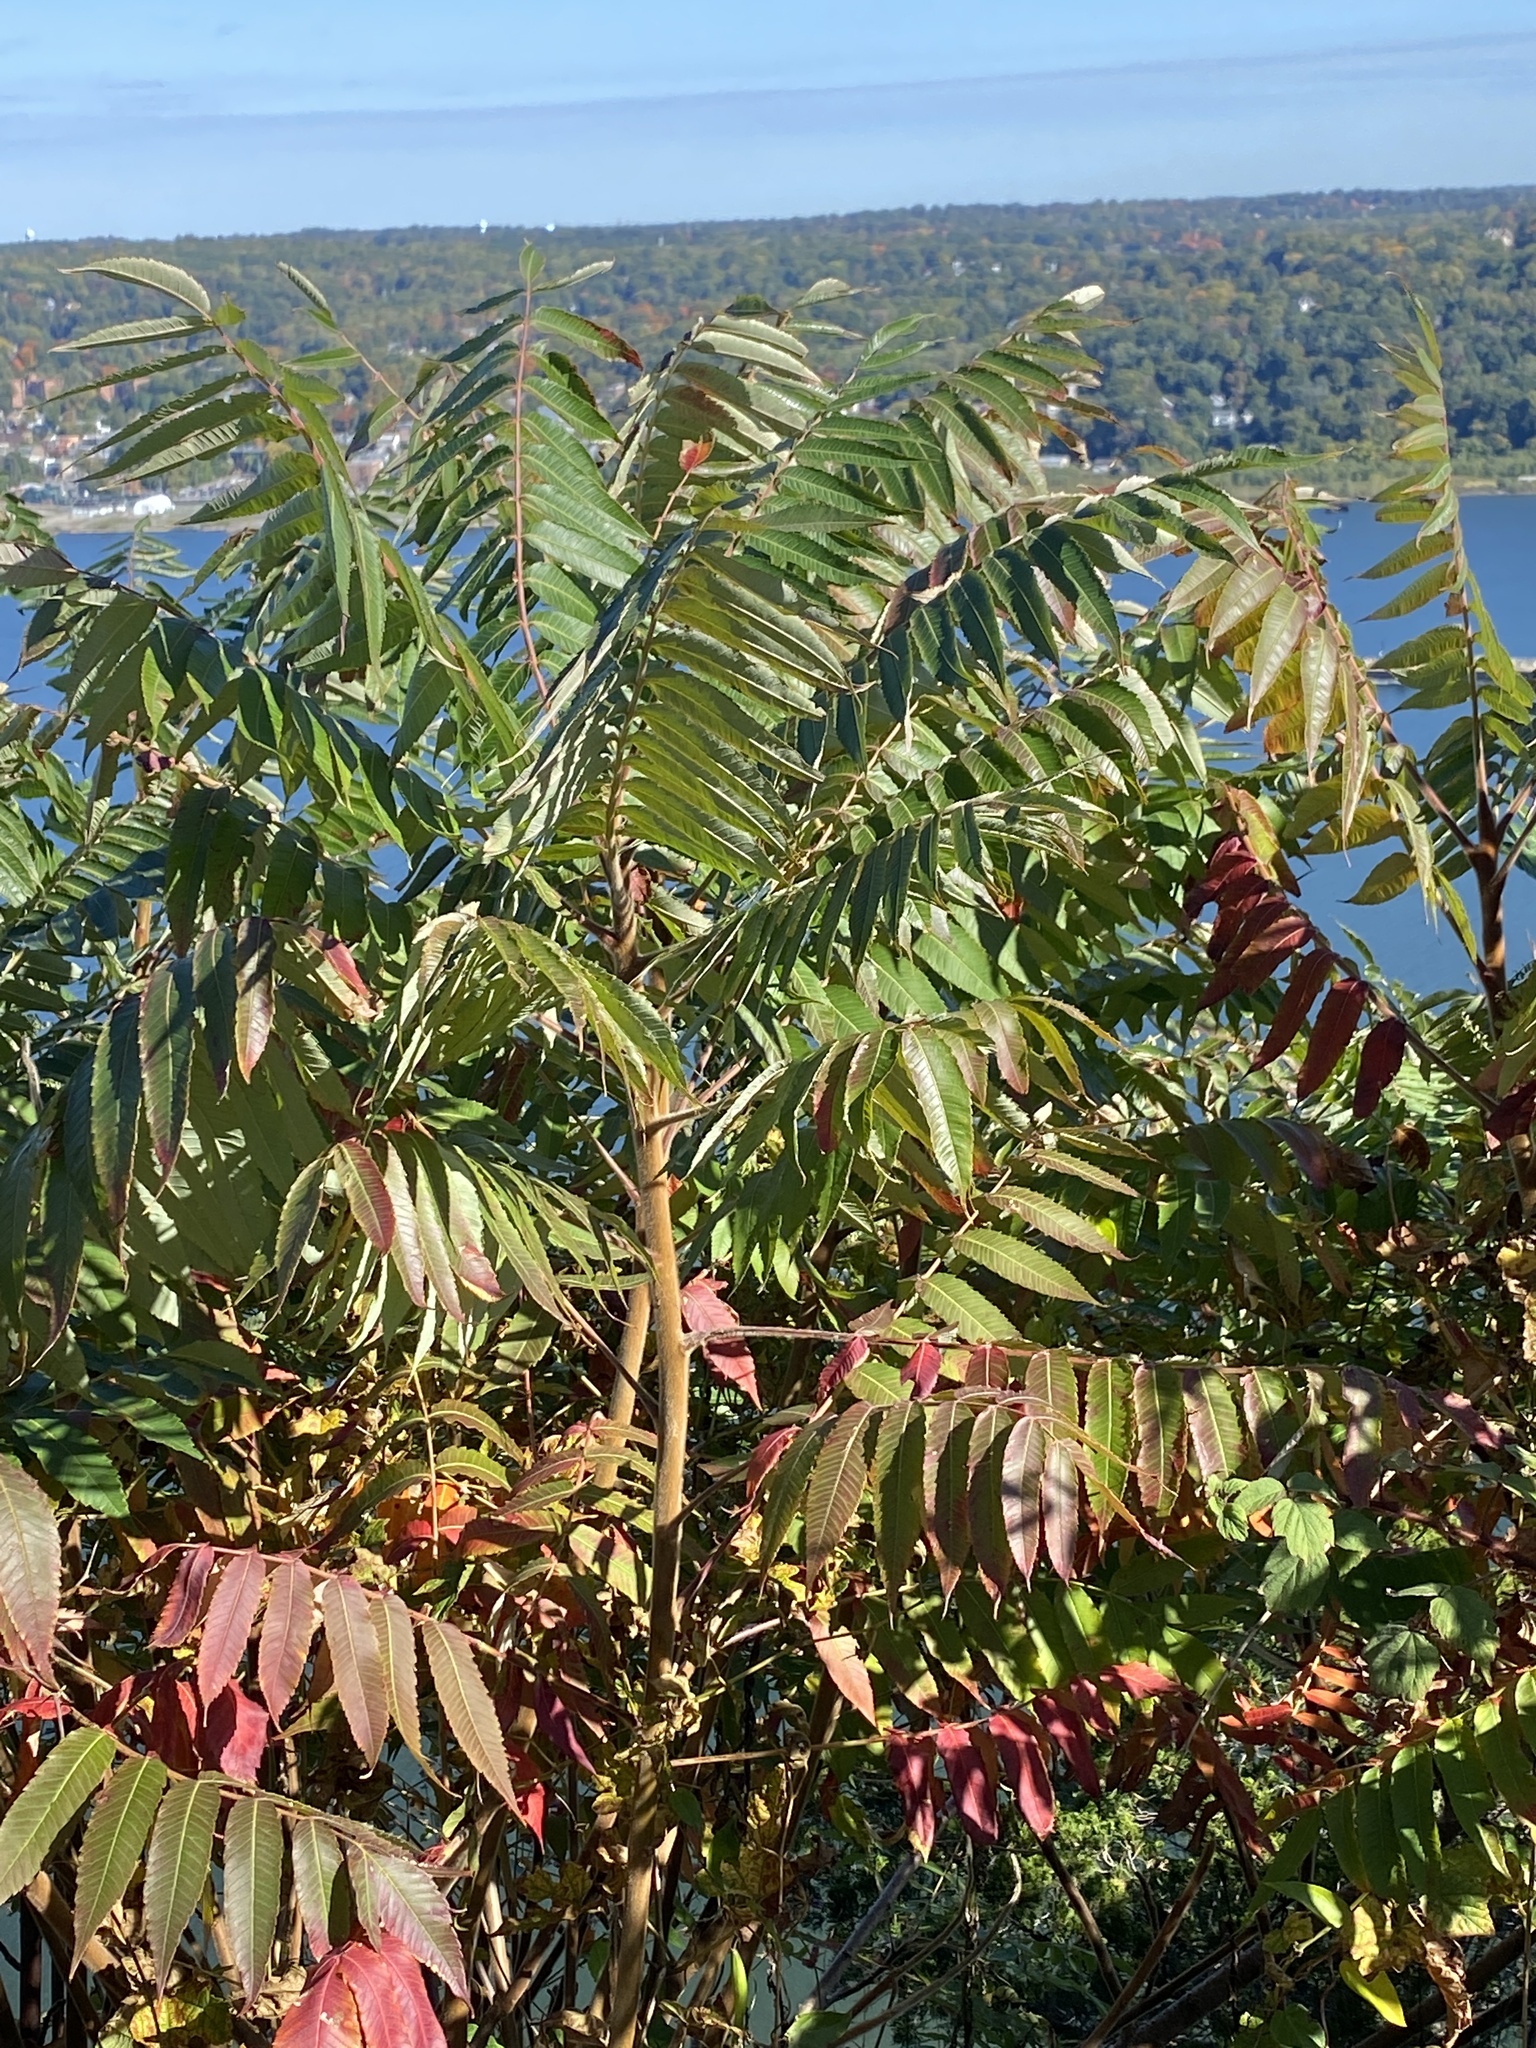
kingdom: Plantae
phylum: Tracheophyta
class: Magnoliopsida
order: Sapindales
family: Anacardiaceae
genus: Rhus
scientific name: Rhus typhina
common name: Staghorn sumac
